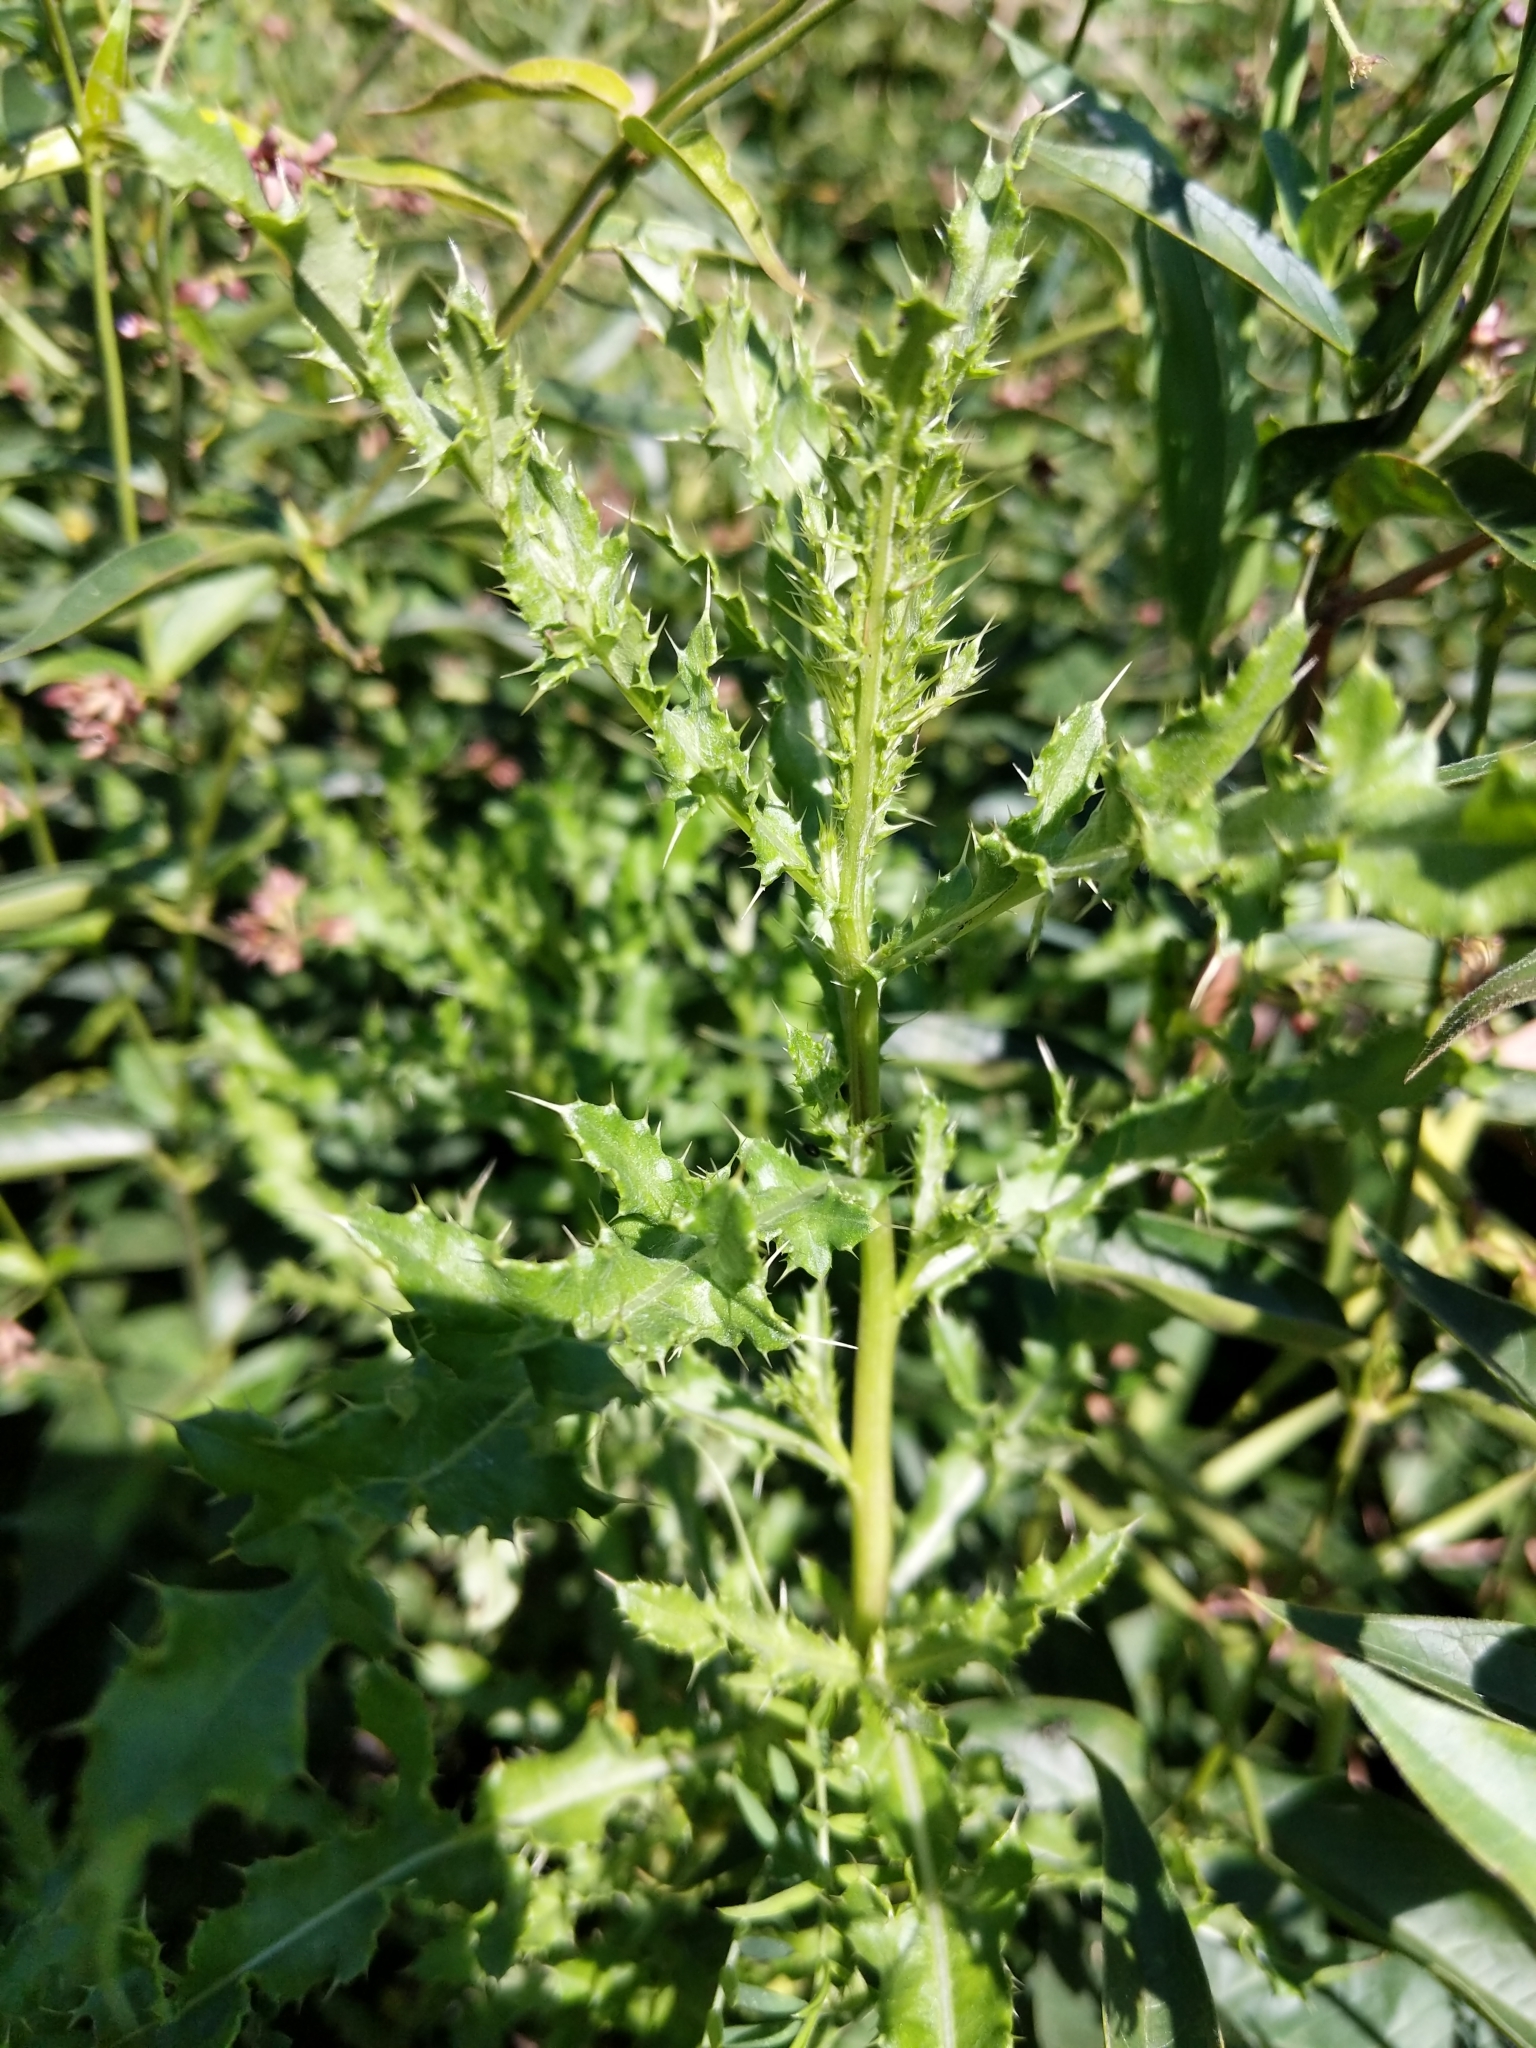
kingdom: Plantae
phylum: Tracheophyta
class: Magnoliopsida
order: Asterales
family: Asteraceae
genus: Cirsium
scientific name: Cirsium arvense
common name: Creeping thistle
